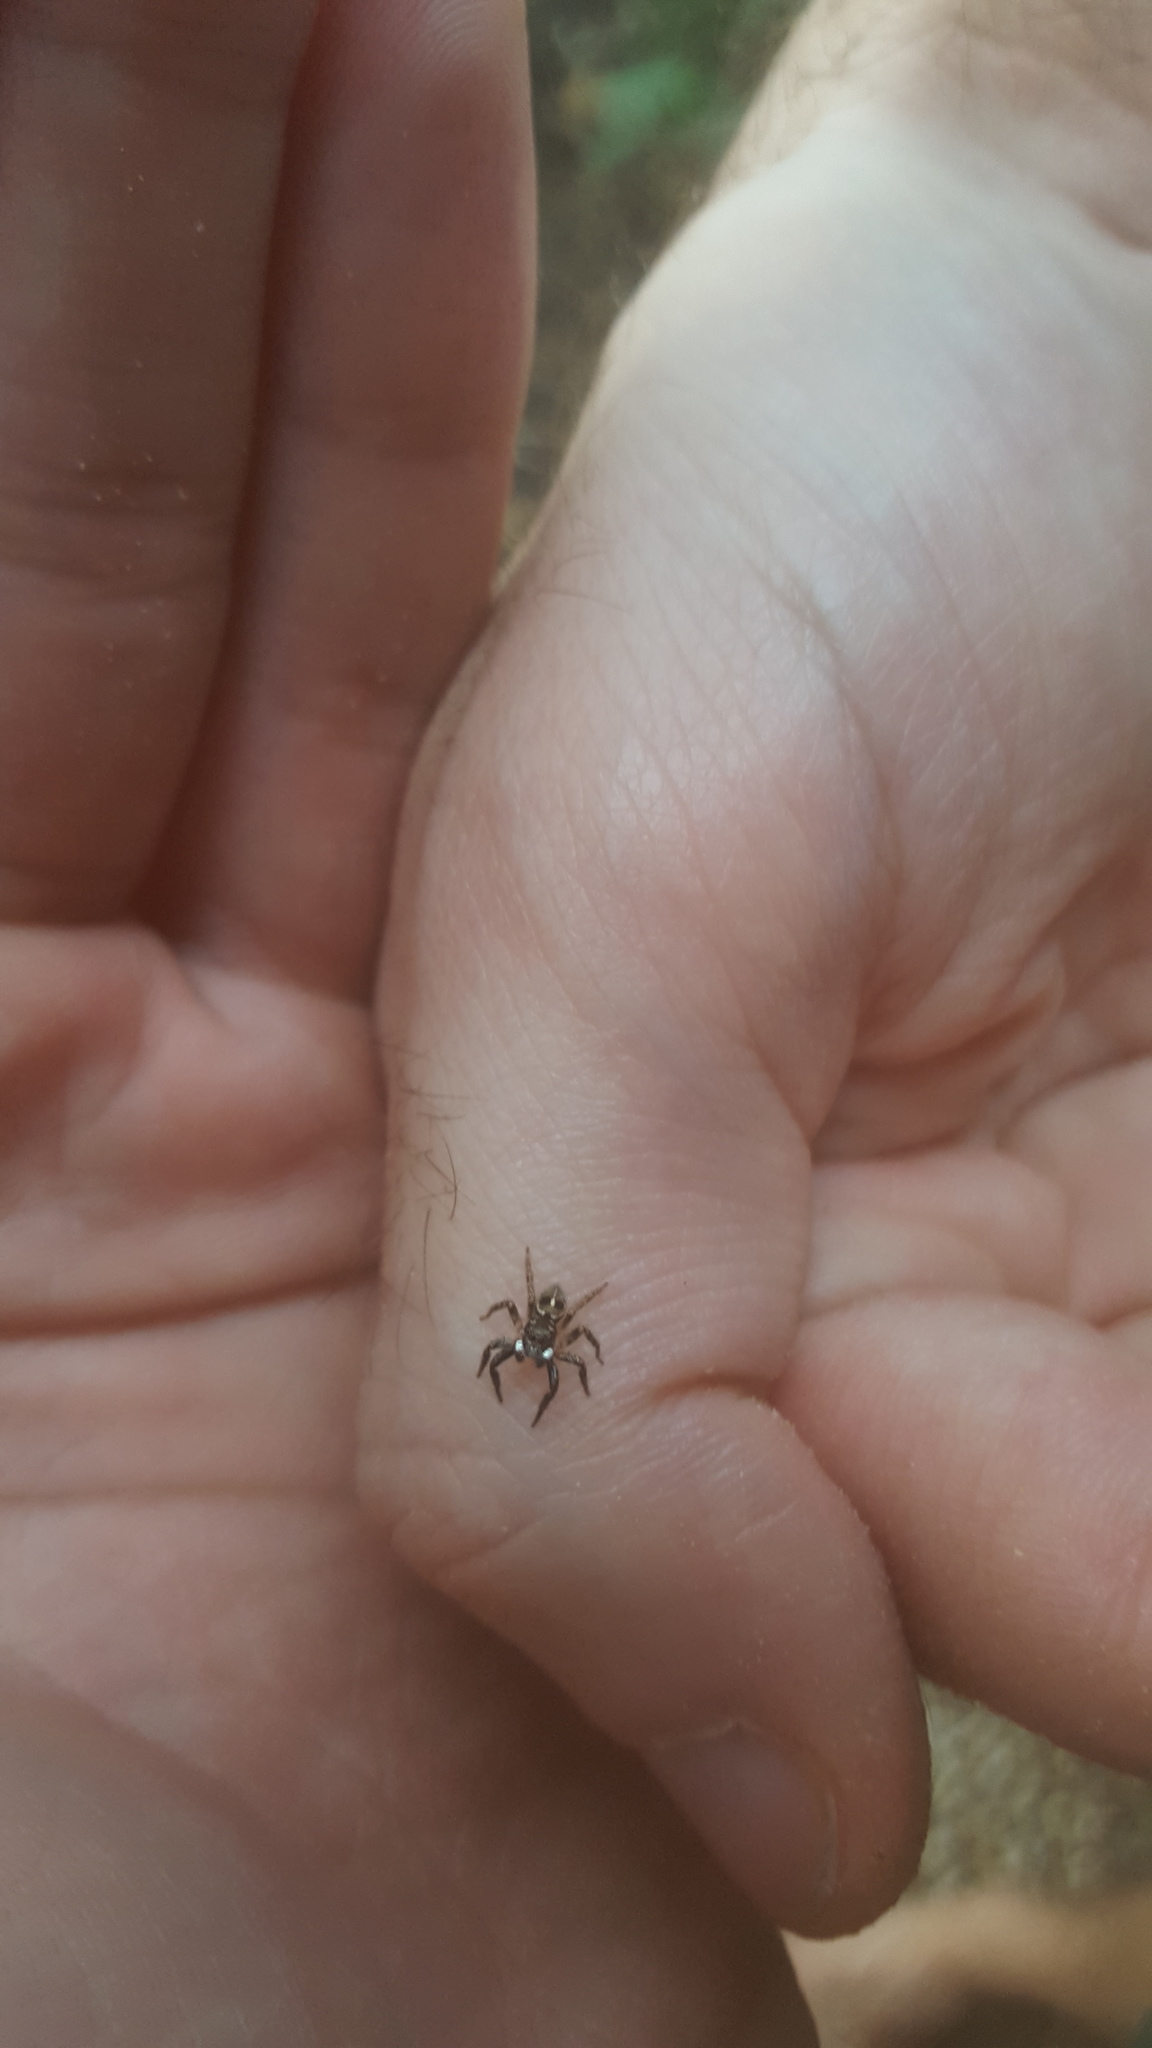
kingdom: Animalia
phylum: Arthropoda
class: Arachnida
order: Araneae
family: Salticidae
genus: Anasaitis
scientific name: Anasaitis canosa
